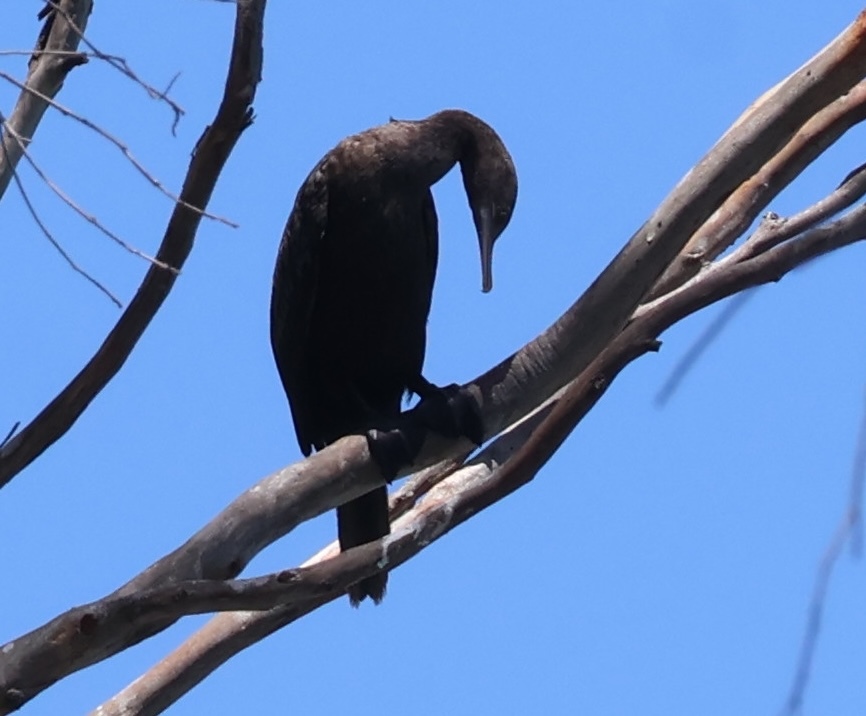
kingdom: Animalia
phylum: Chordata
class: Aves
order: Suliformes
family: Phalacrocoracidae
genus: Phalacrocorax
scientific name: Phalacrocorax sulcirostris
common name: Little black cormorant
